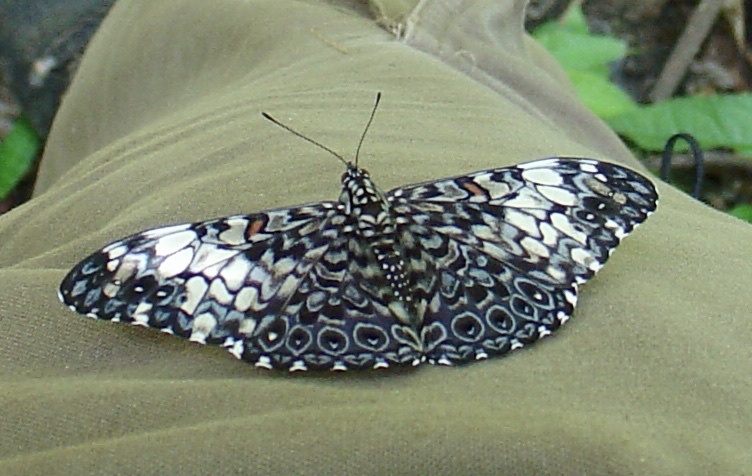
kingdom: Animalia
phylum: Arthropoda
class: Insecta
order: Lepidoptera
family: Nymphalidae
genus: Hamadryas
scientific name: Hamadryas fornax
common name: Orange cracker
